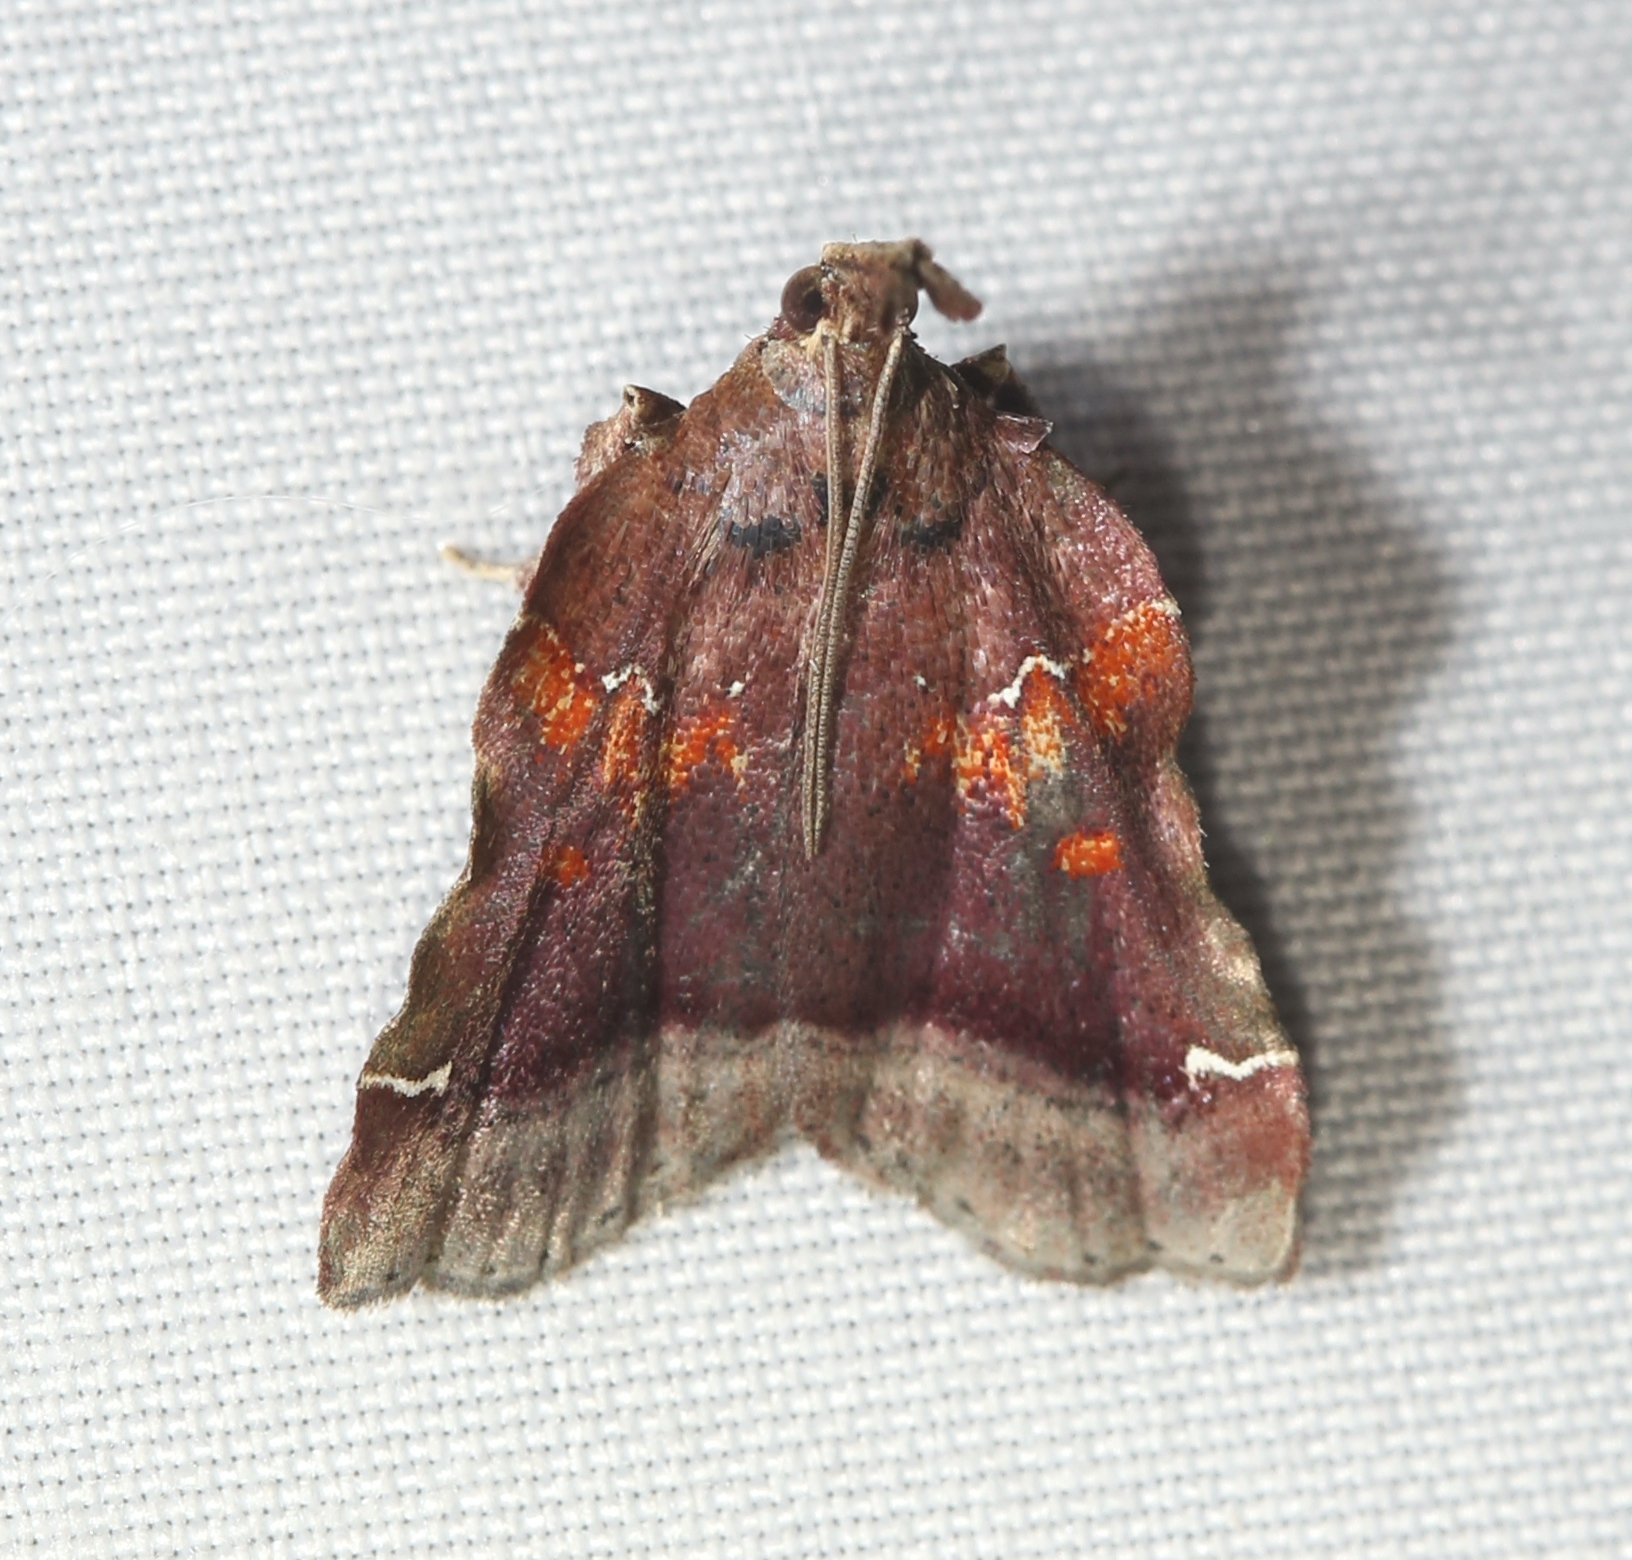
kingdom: Animalia
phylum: Arthropoda
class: Insecta
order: Lepidoptera
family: Pyralidae
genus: Clydonopteron
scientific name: Clydonopteron sacculana
